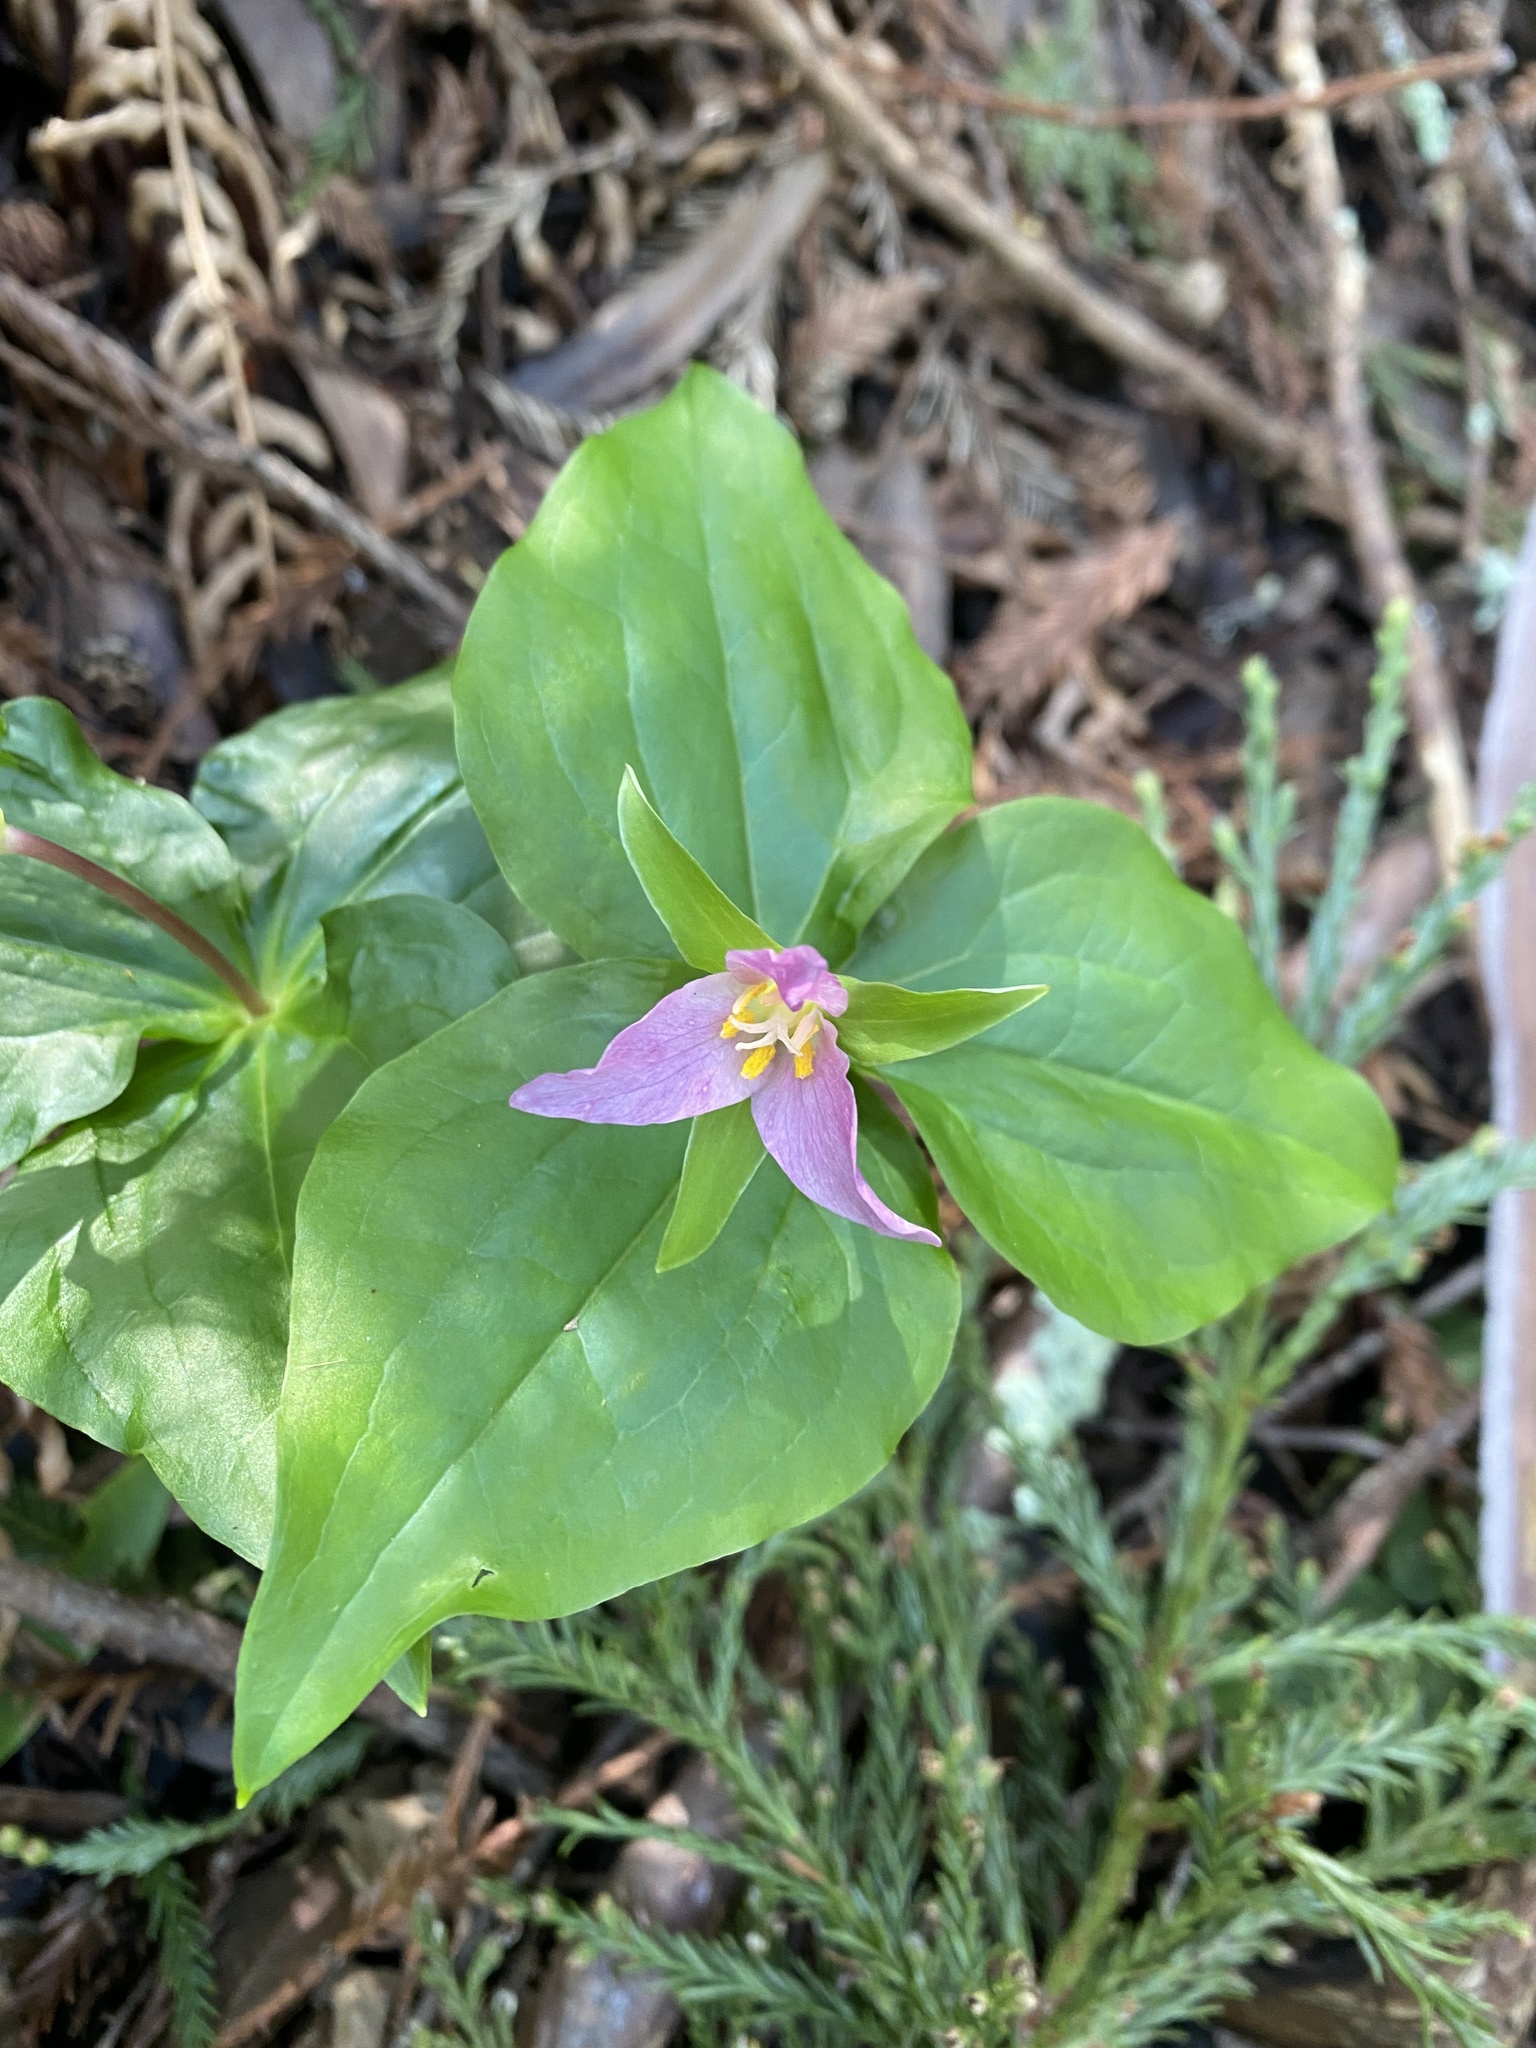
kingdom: Plantae
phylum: Tracheophyta
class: Liliopsida
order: Liliales
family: Melanthiaceae
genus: Trillium
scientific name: Trillium ovatum
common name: Pacific trillium
